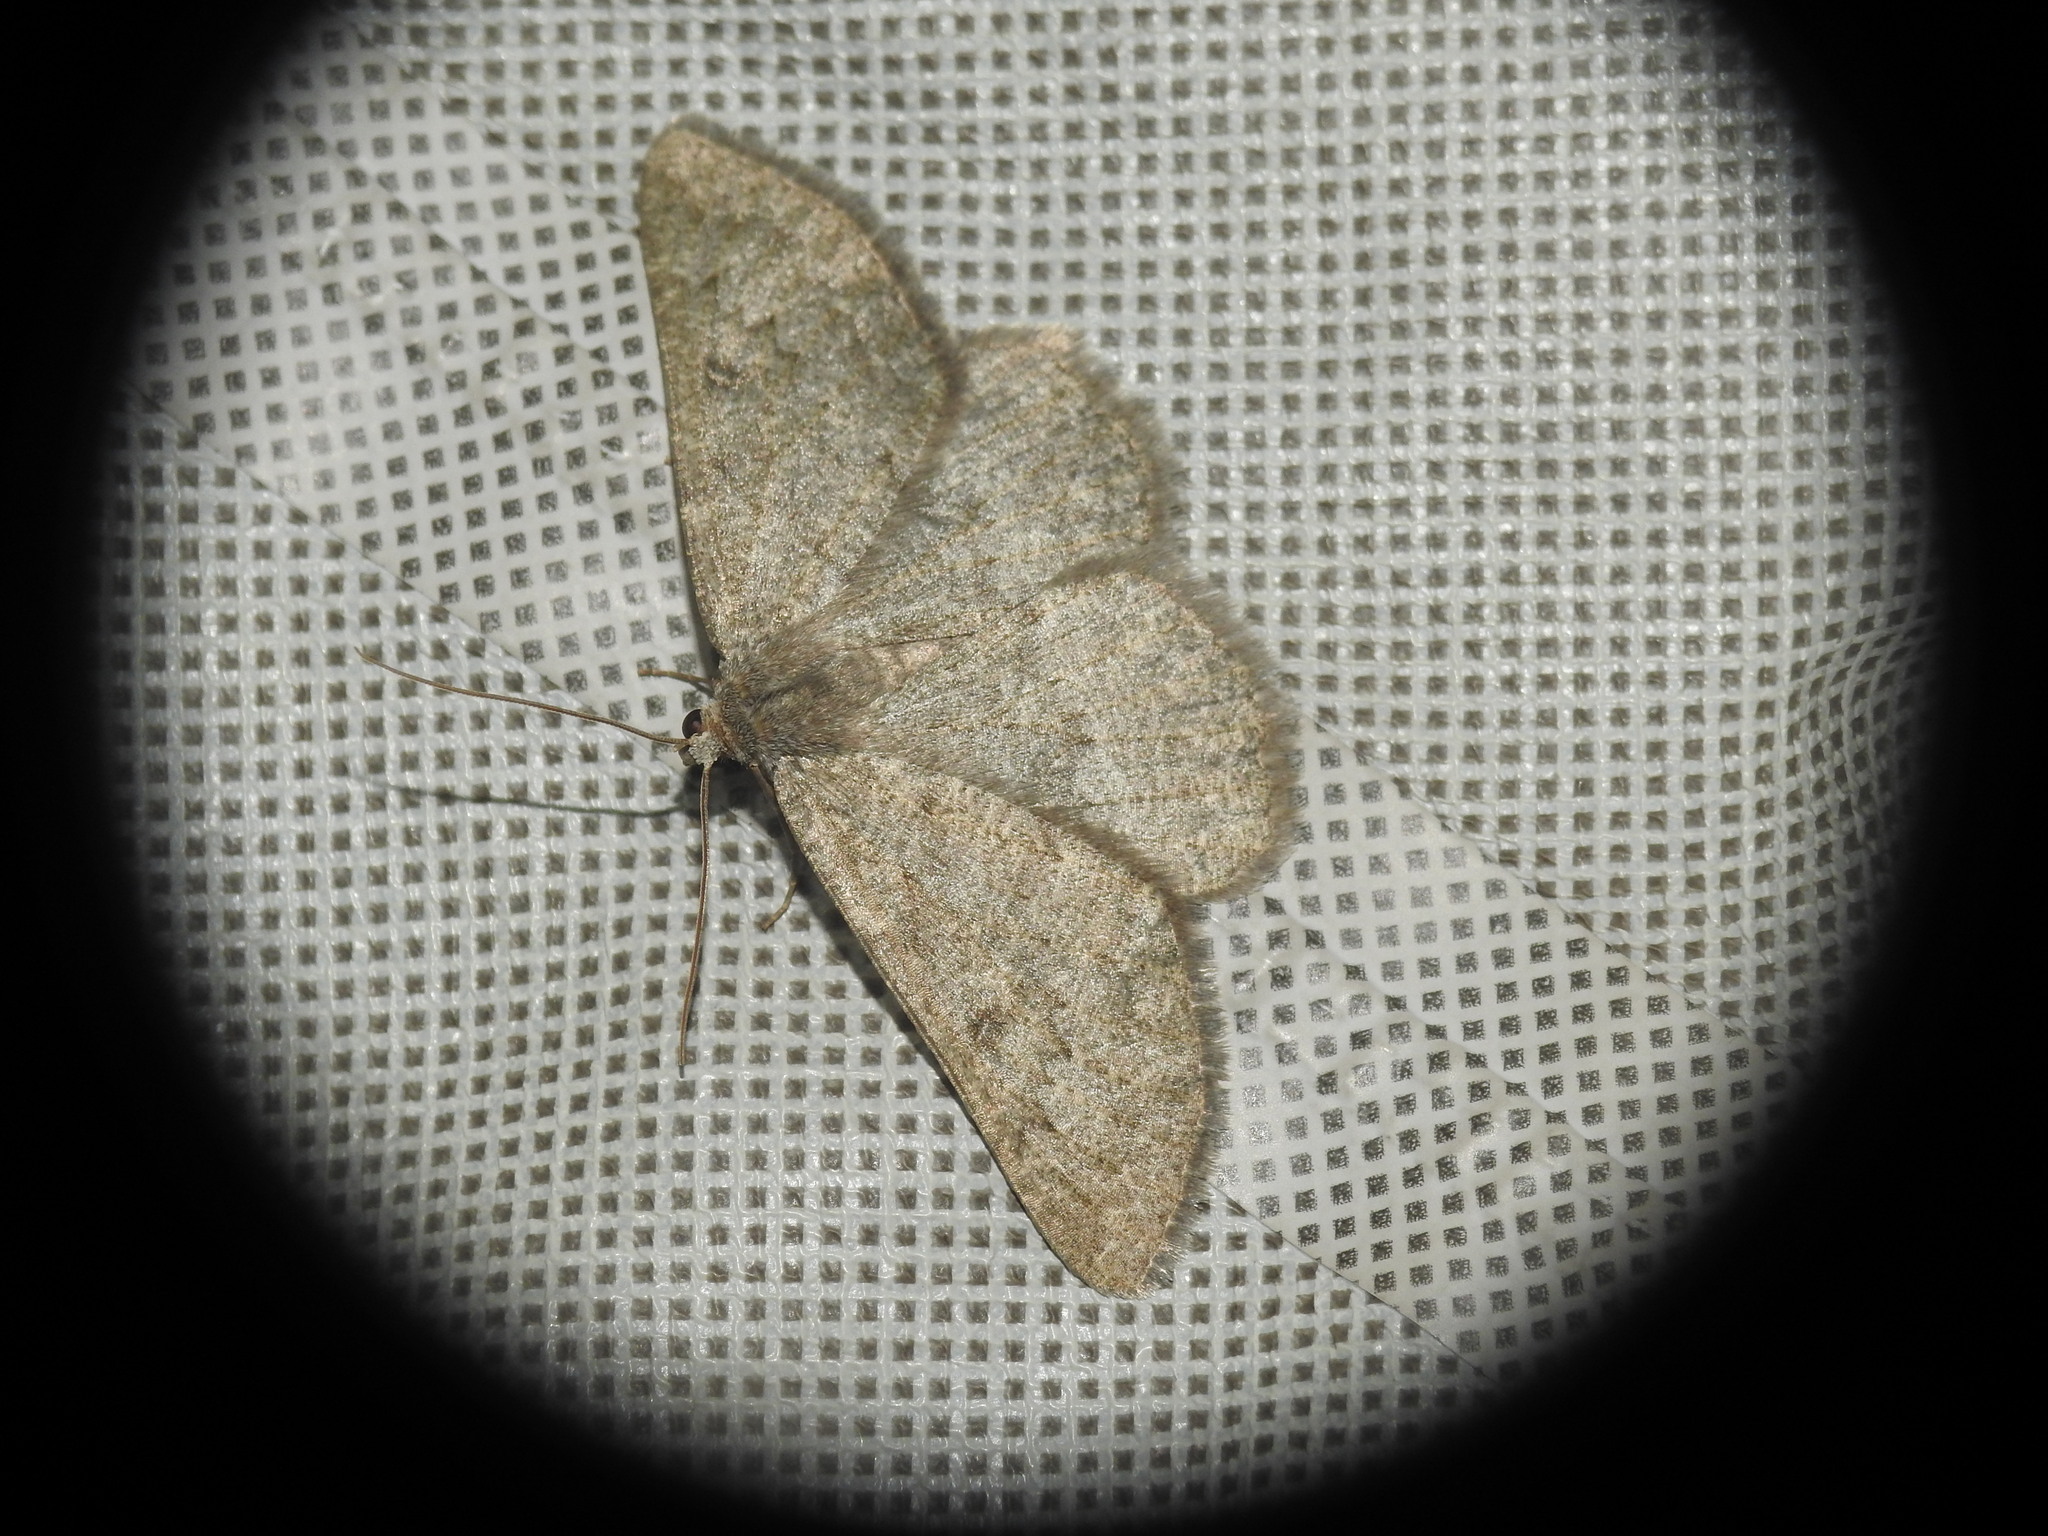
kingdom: Animalia
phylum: Arthropoda
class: Insecta
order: Lepidoptera
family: Geometridae
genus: Gnophos
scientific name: Gnophos obfuscata
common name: Scottish annulet
